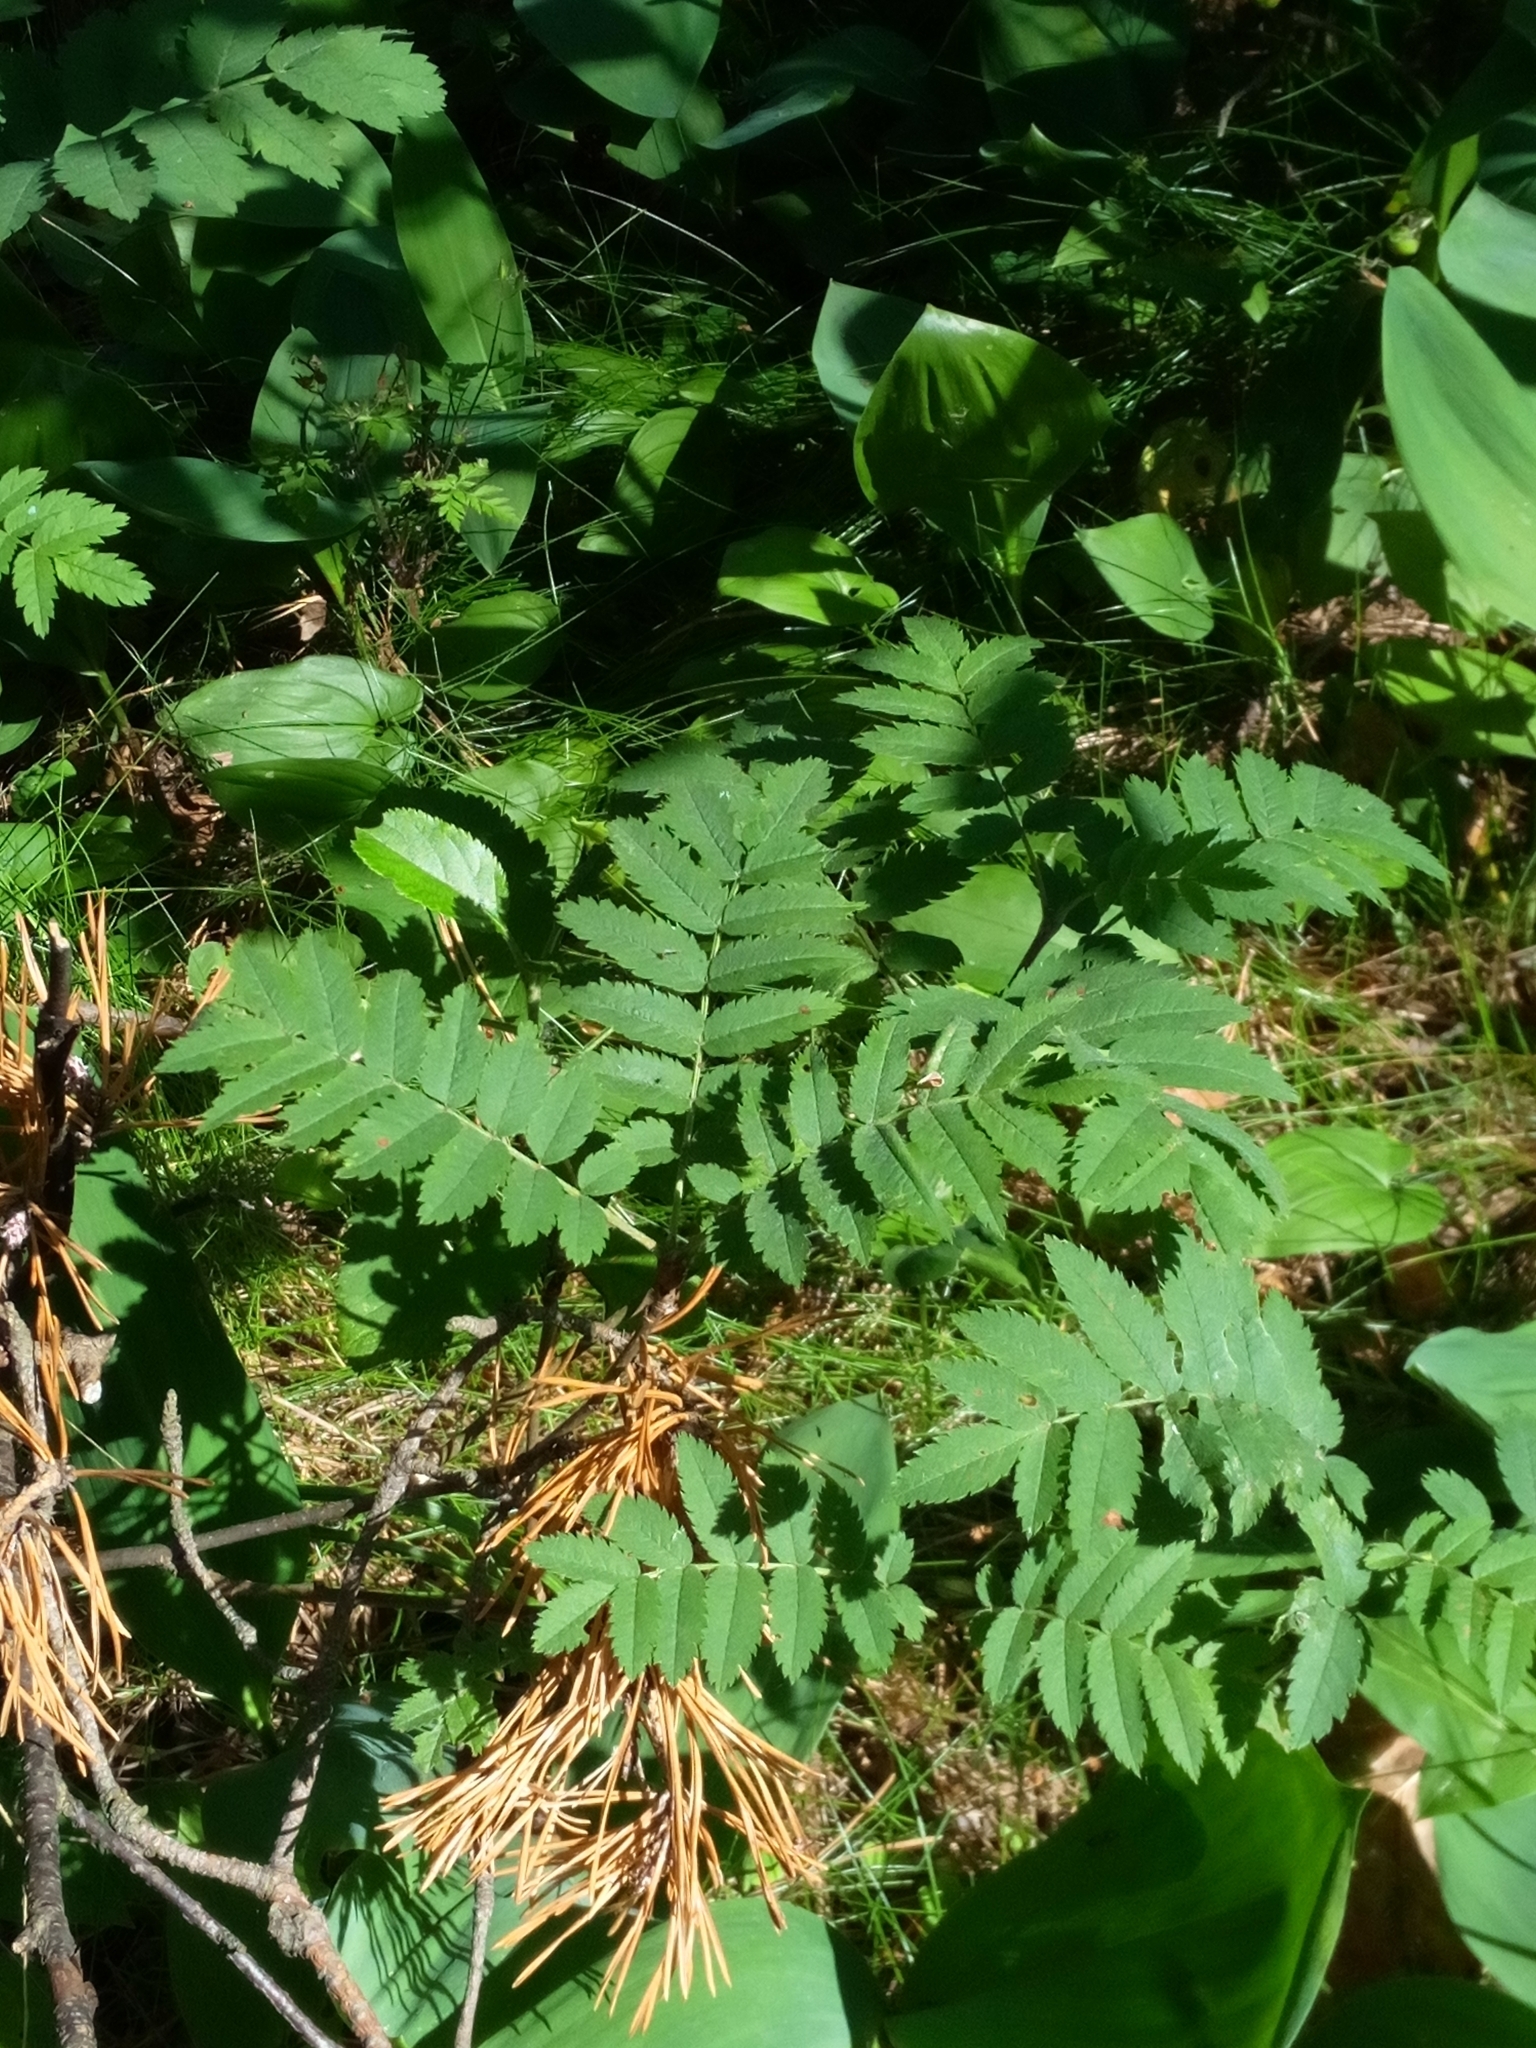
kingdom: Plantae
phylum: Tracheophyta
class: Magnoliopsida
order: Rosales
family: Rosaceae
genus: Sorbus
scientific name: Sorbus aucuparia
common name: Rowan
